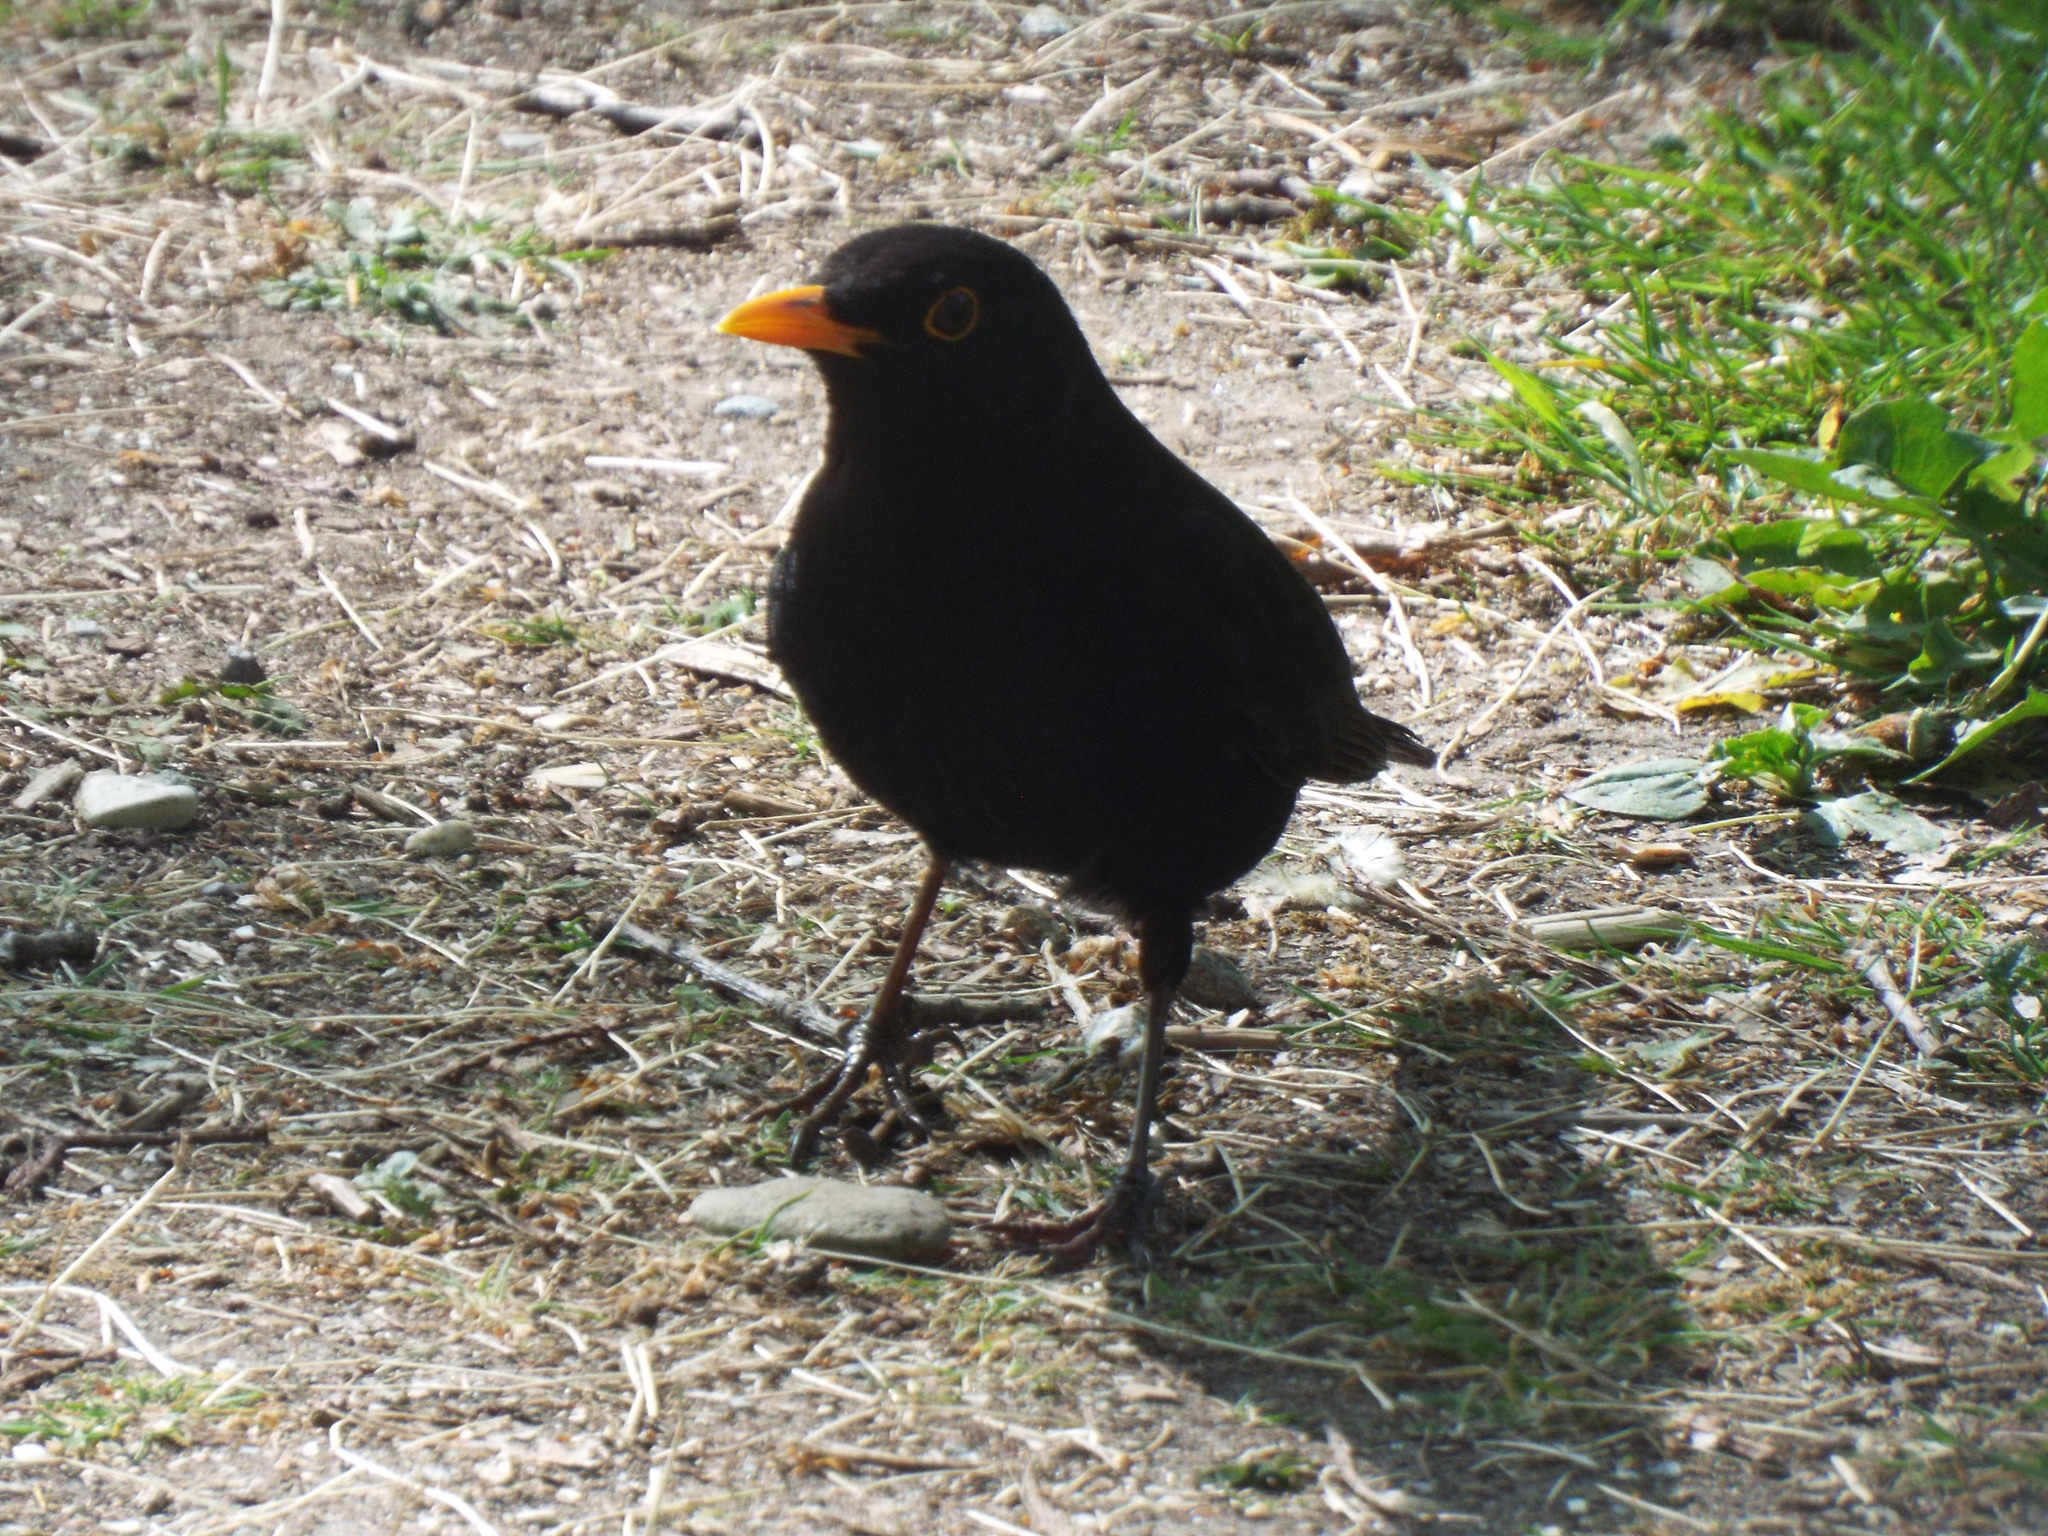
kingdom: Animalia
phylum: Chordata
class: Aves
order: Passeriformes
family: Turdidae
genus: Turdus
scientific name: Turdus merula
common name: Common blackbird
